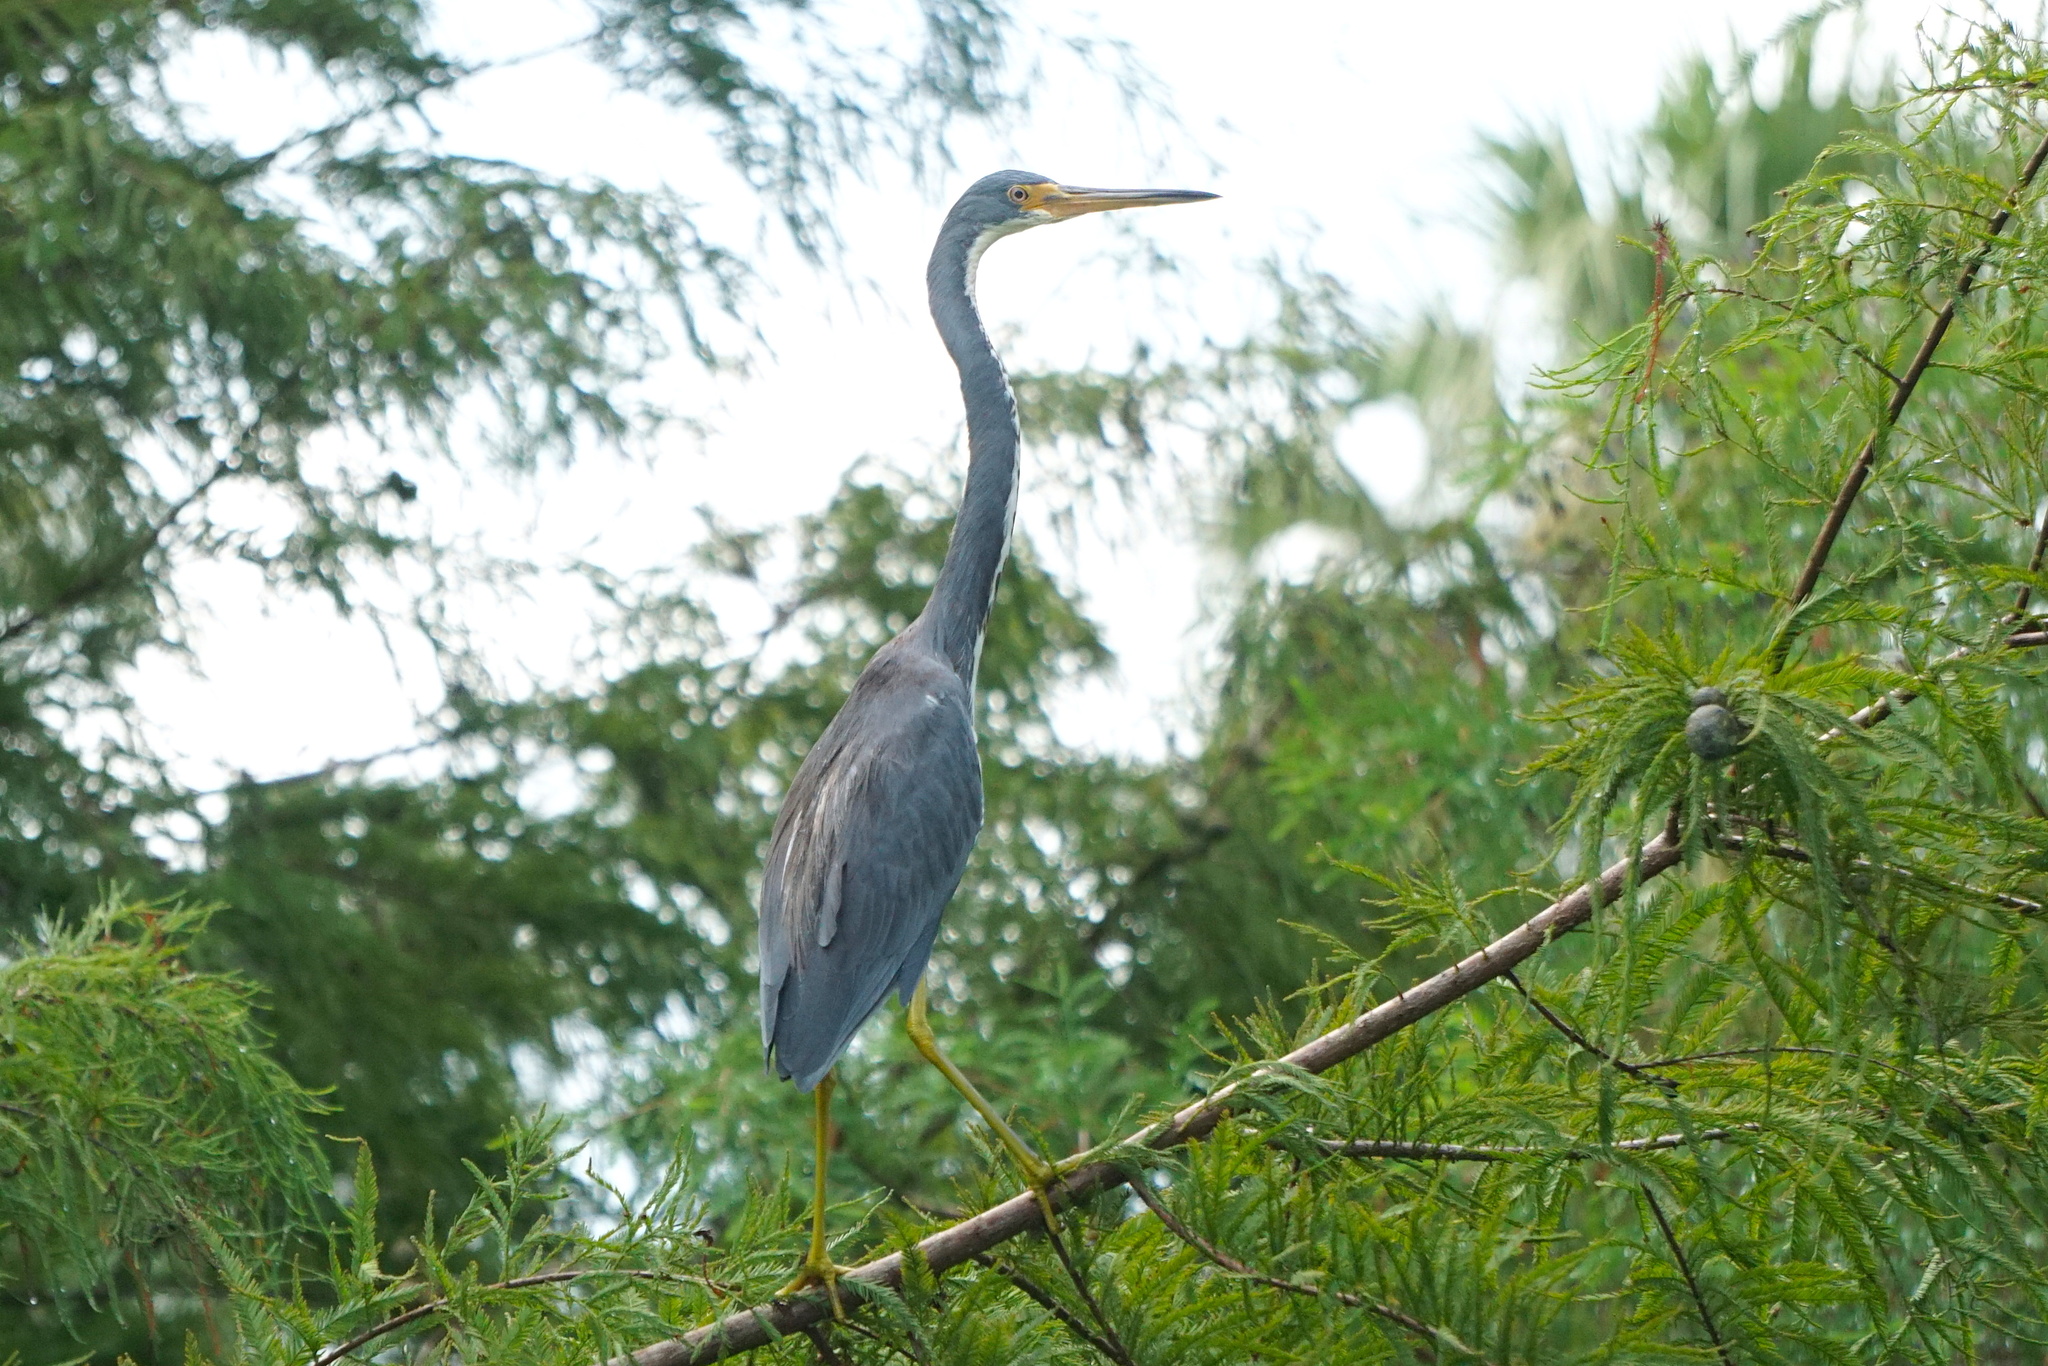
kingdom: Animalia
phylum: Chordata
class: Aves
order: Pelecaniformes
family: Ardeidae
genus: Egretta
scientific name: Egretta tricolor
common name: Tricolored heron
